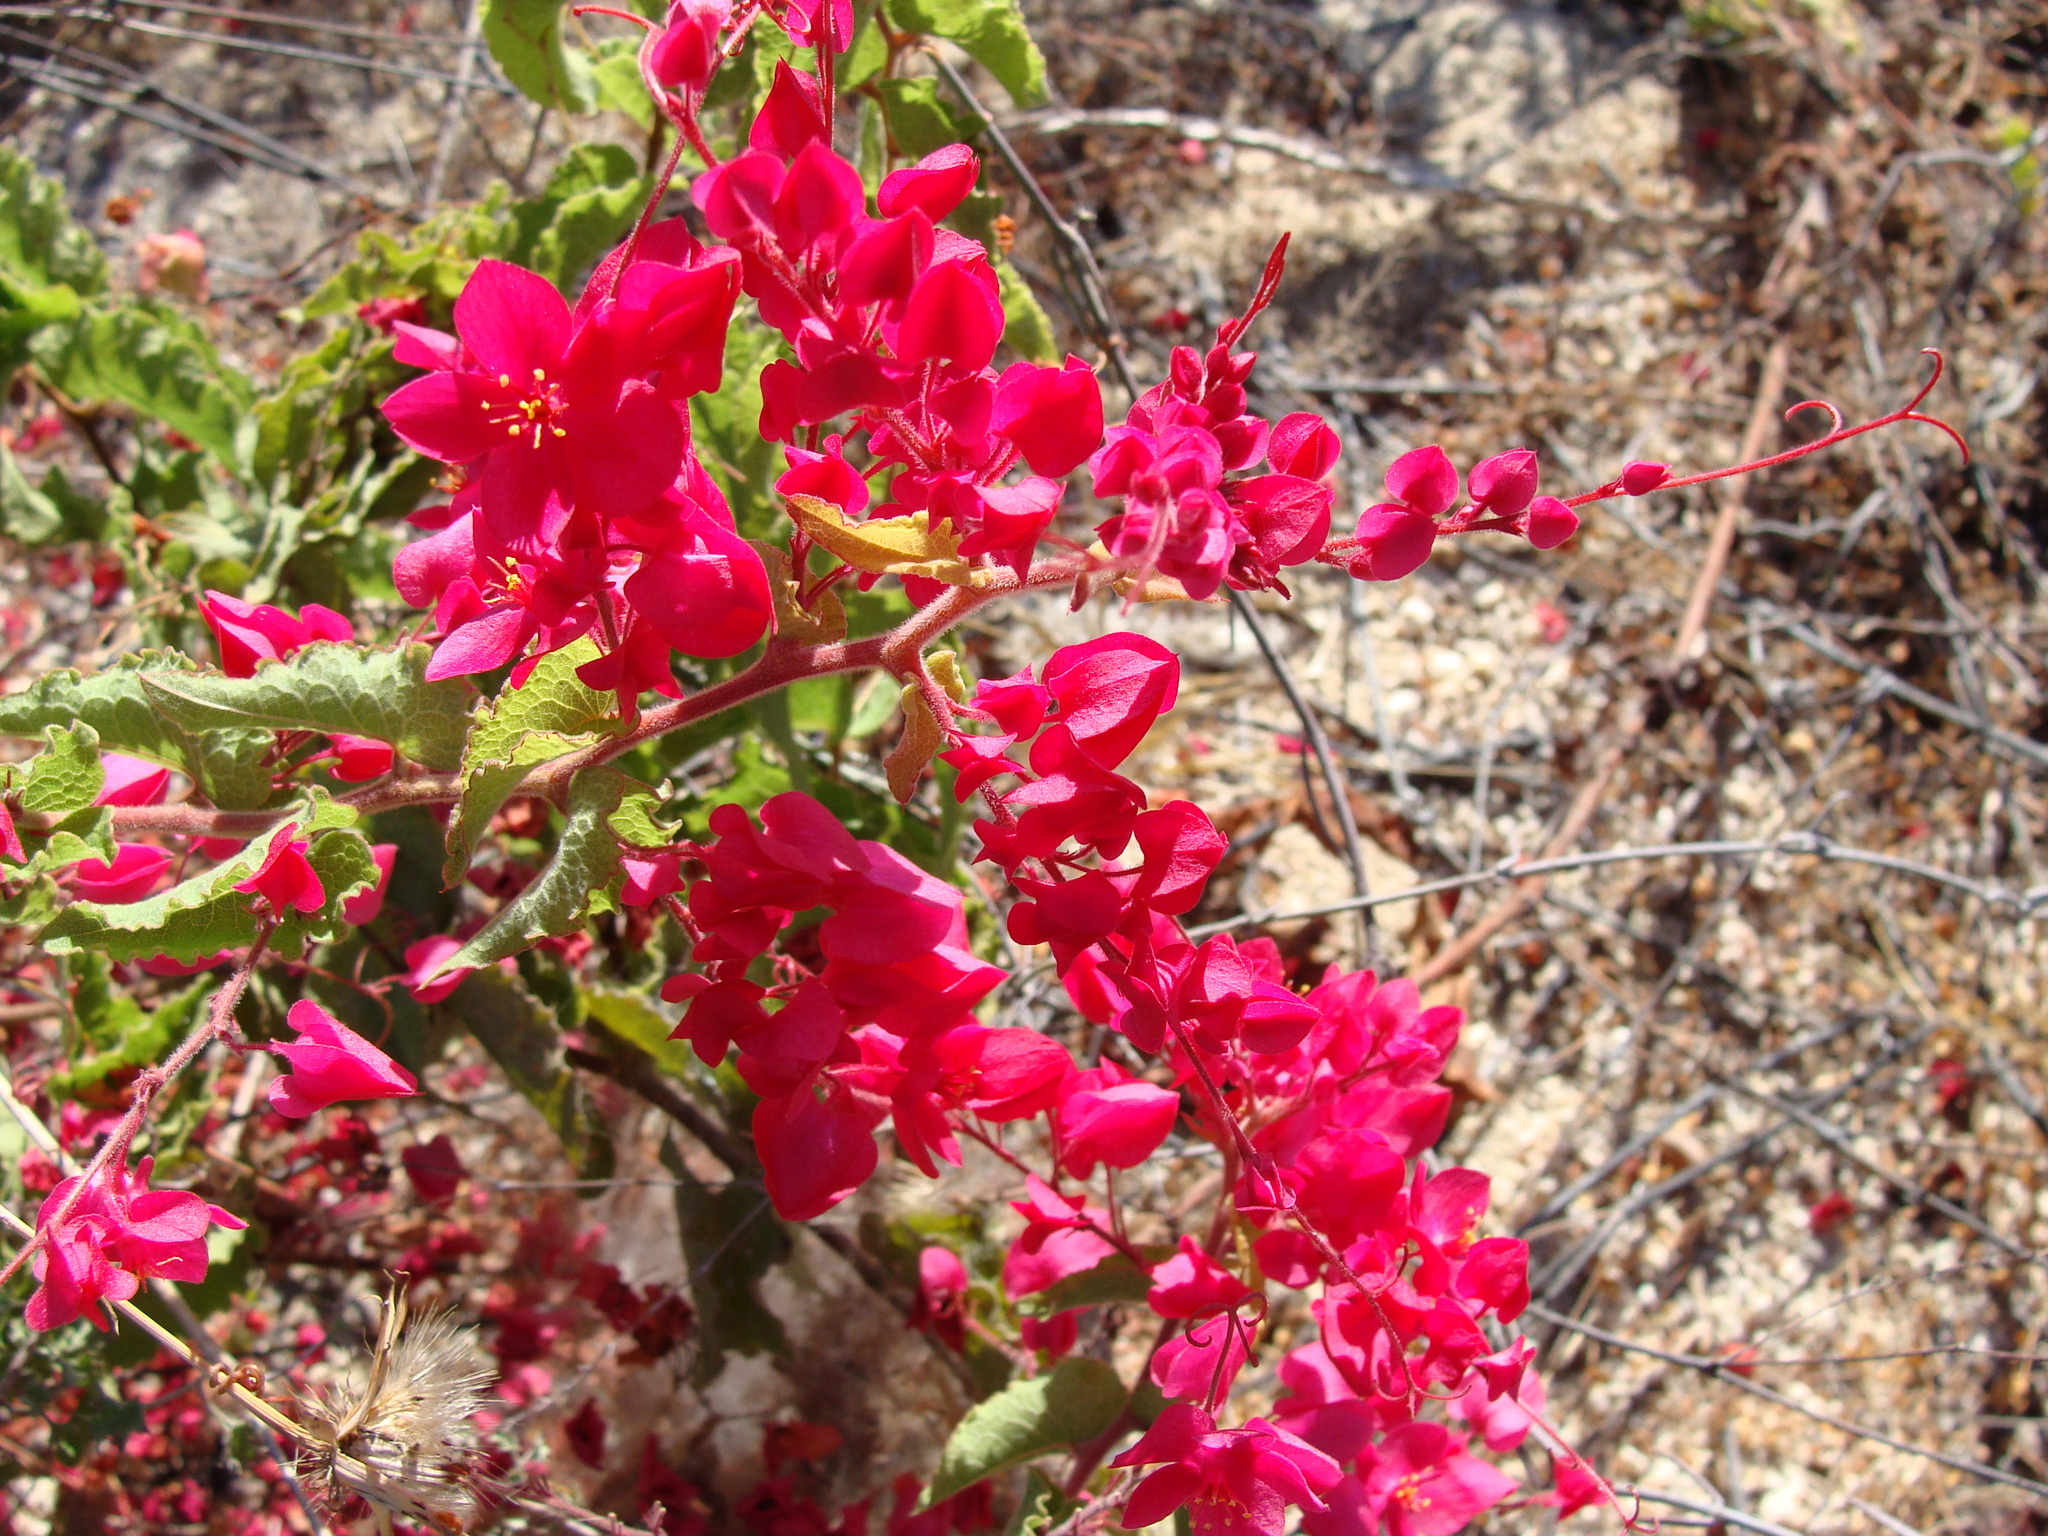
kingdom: Plantae
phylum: Tracheophyta
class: Magnoliopsida
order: Caryophyllales
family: Polygonaceae
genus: Antigonon
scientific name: Antigonon leptopus
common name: Coral vine
